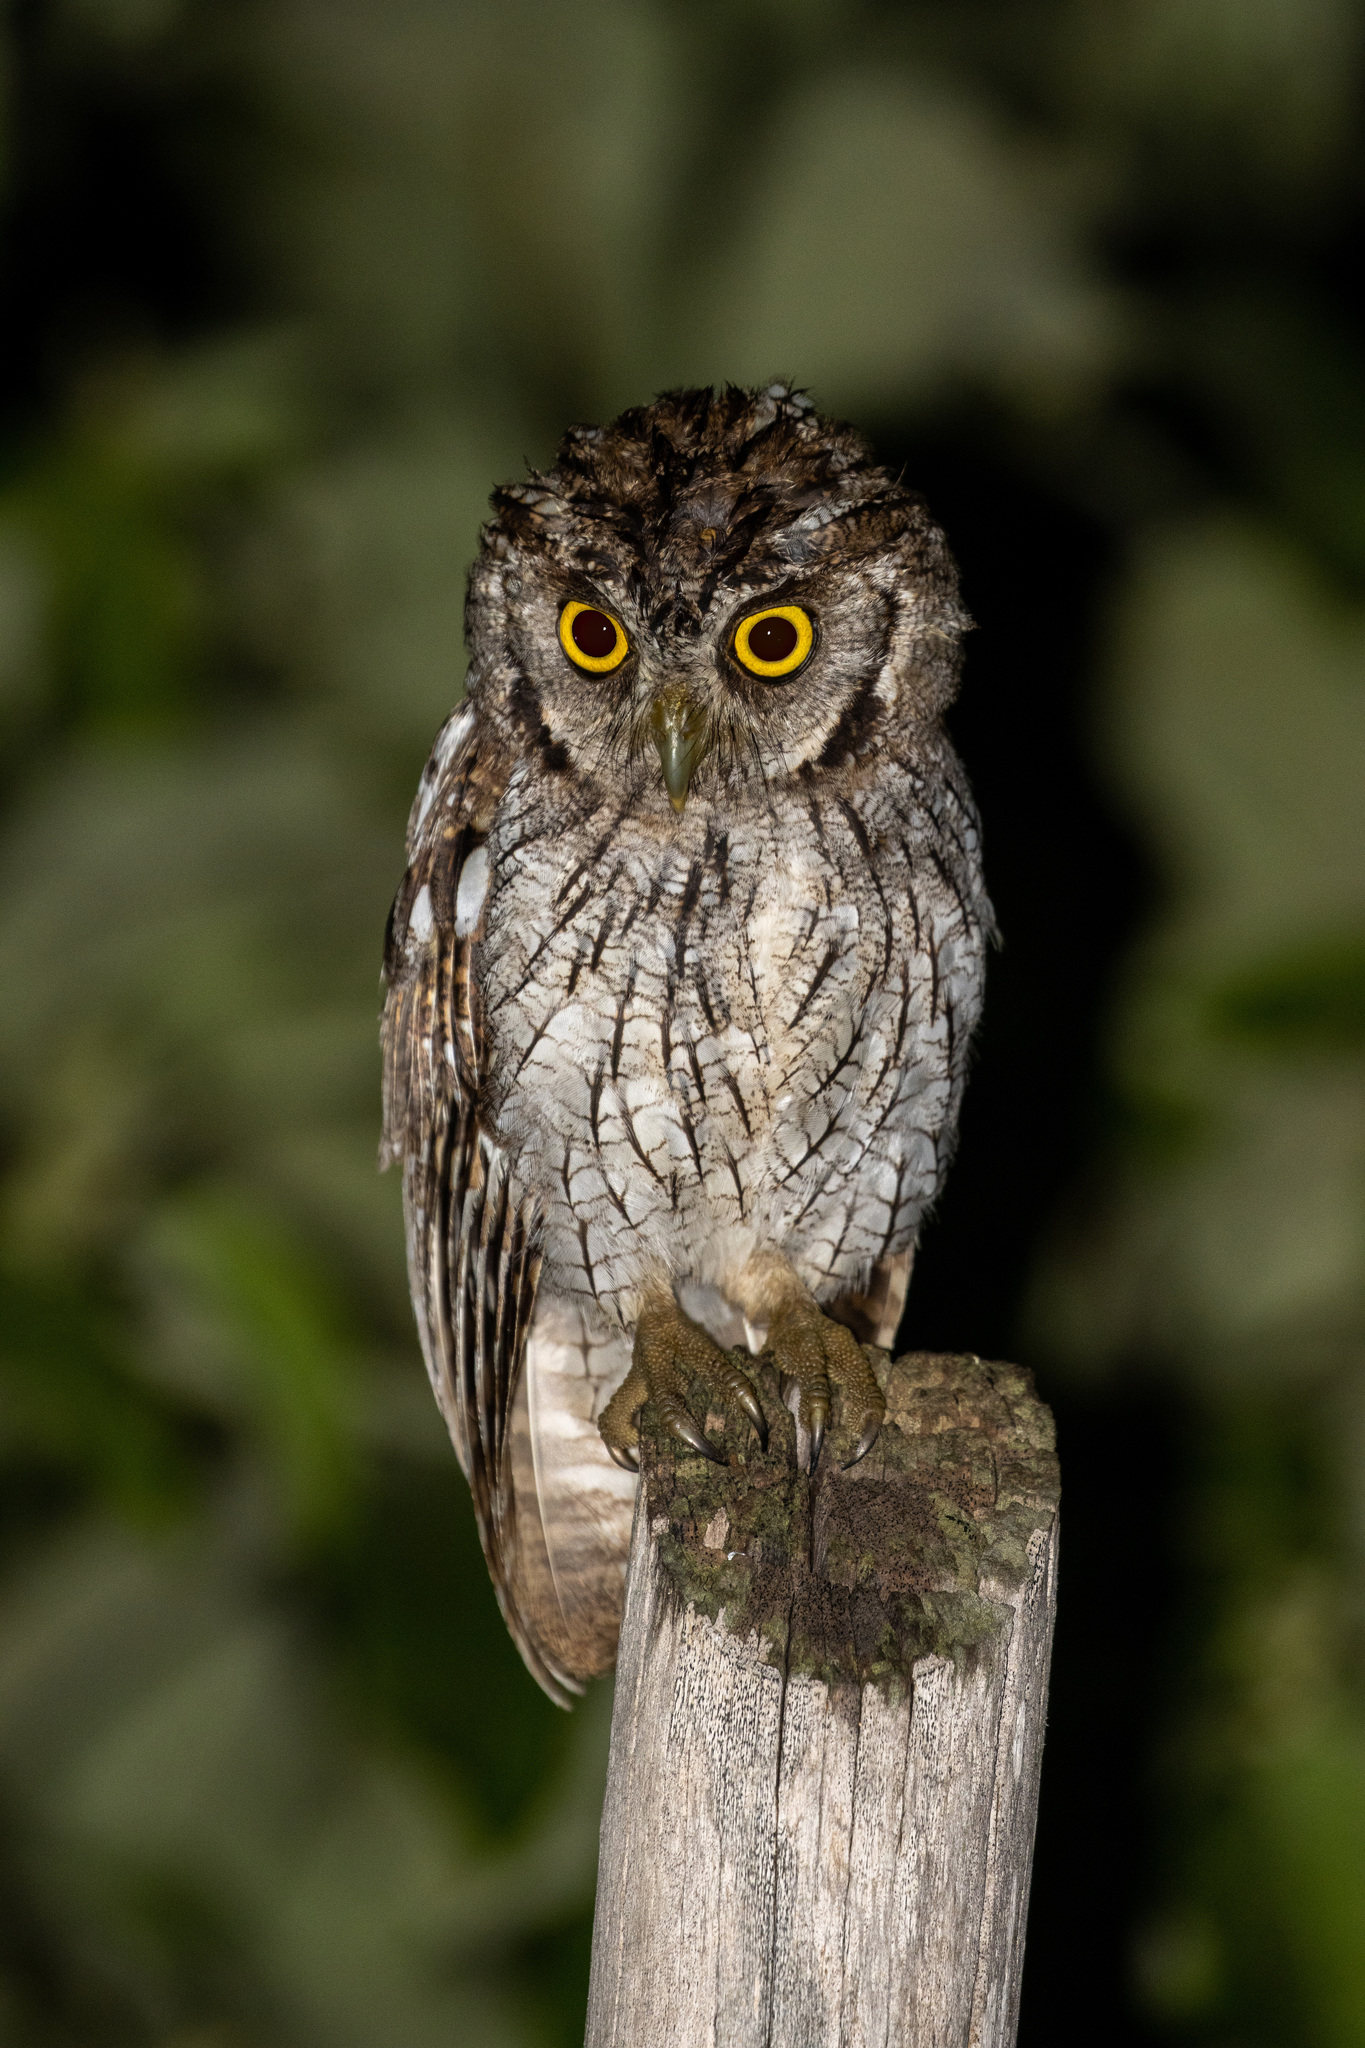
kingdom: Animalia
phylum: Chordata
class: Aves
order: Strigiformes
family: Strigidae
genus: Megascops
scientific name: Megascops choliba
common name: Tropical screech-owl
